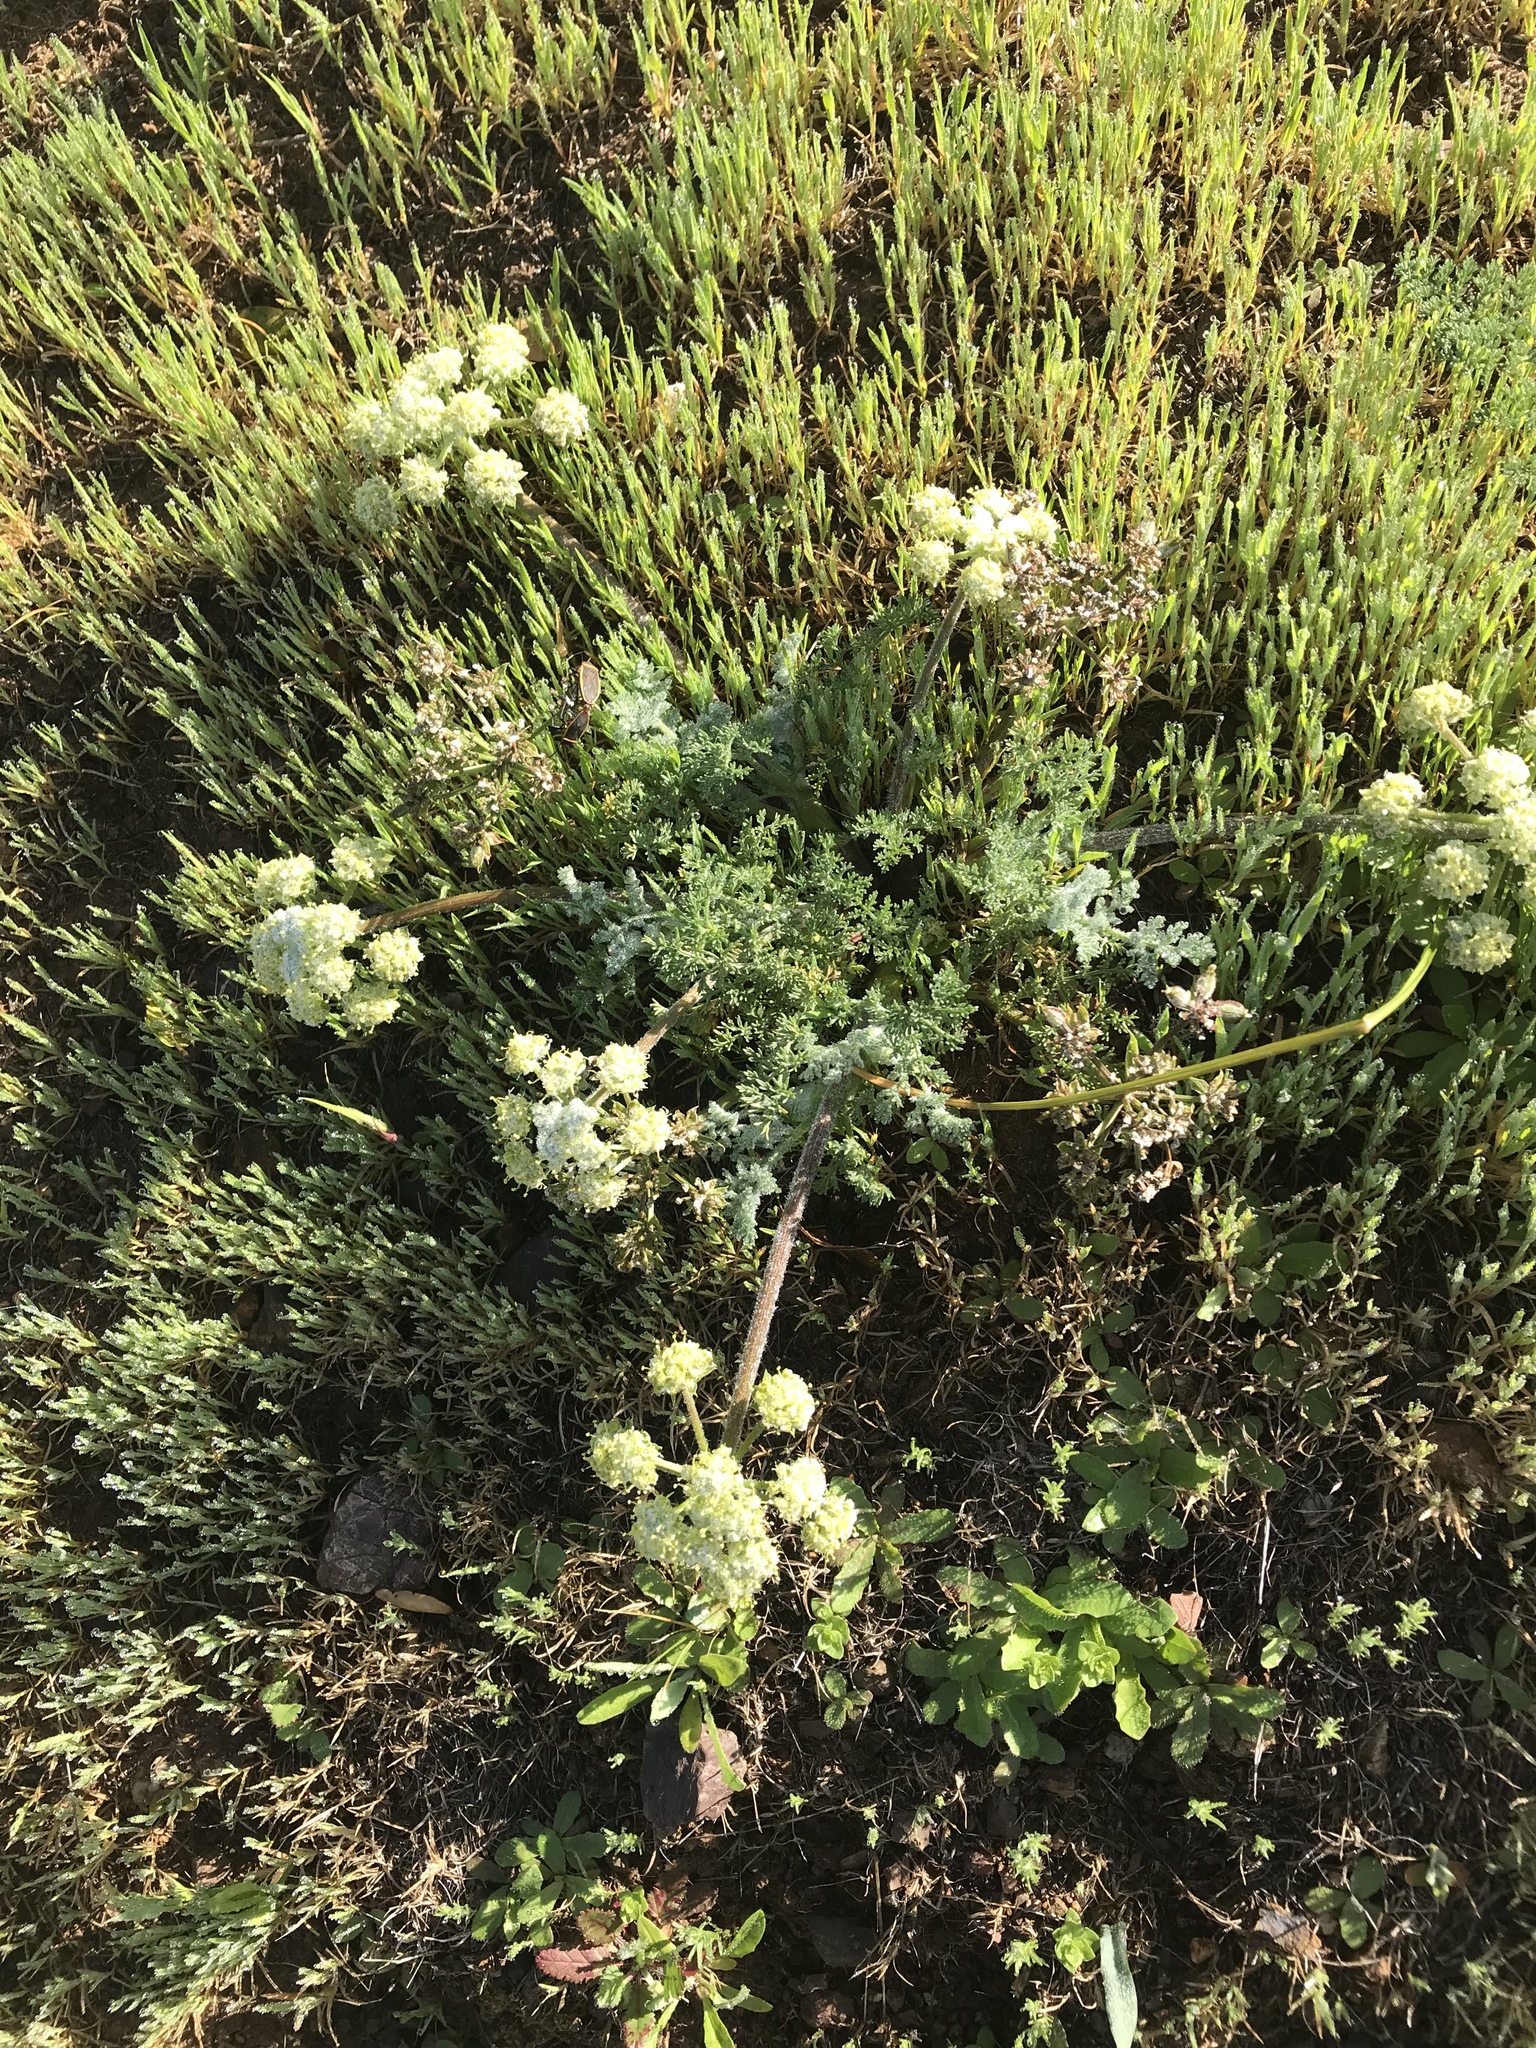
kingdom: Plantae
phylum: Tracheophyta
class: Magnoliopsida
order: Apiales
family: Apiaceae
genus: Lomatium
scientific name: Lomatium dasycarpum
